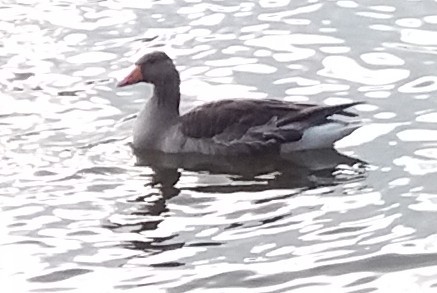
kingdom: Animalia
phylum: Chordata
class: Aves
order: Anseriformes
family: Anatidae
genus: Anser
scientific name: Anser anser
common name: Greylag goose
